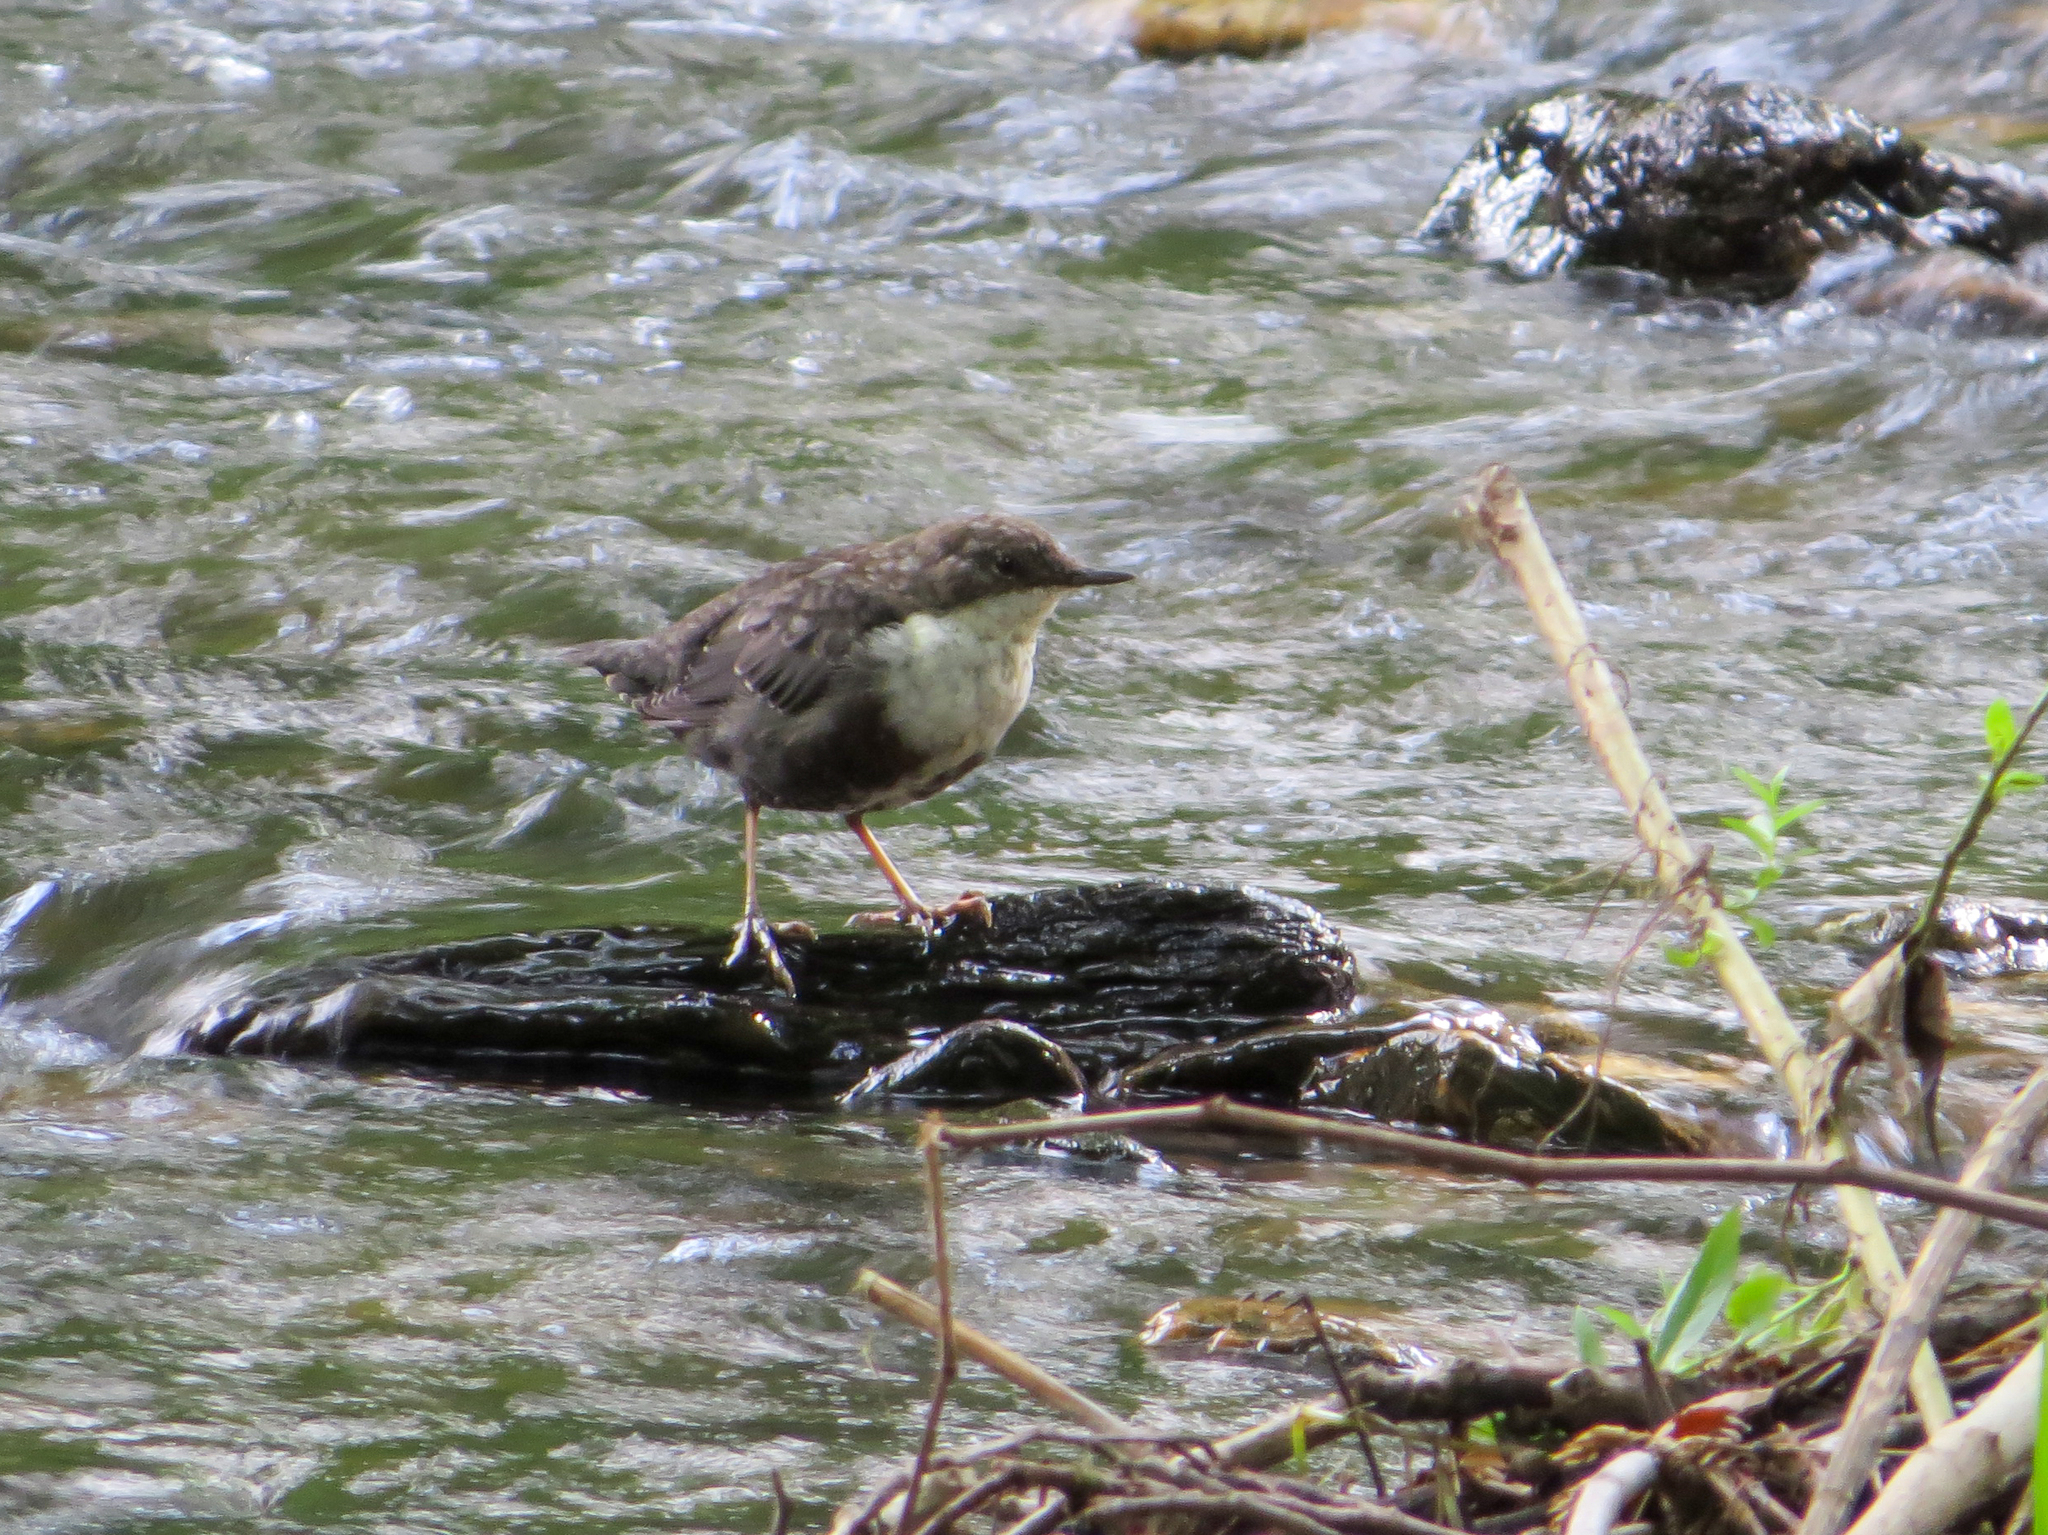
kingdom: Animalia
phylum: Chordata
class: Aves
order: Passeriformes
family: Cinclidae
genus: Cinclus
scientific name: Cinclus cinclus
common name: White-throated dipper
